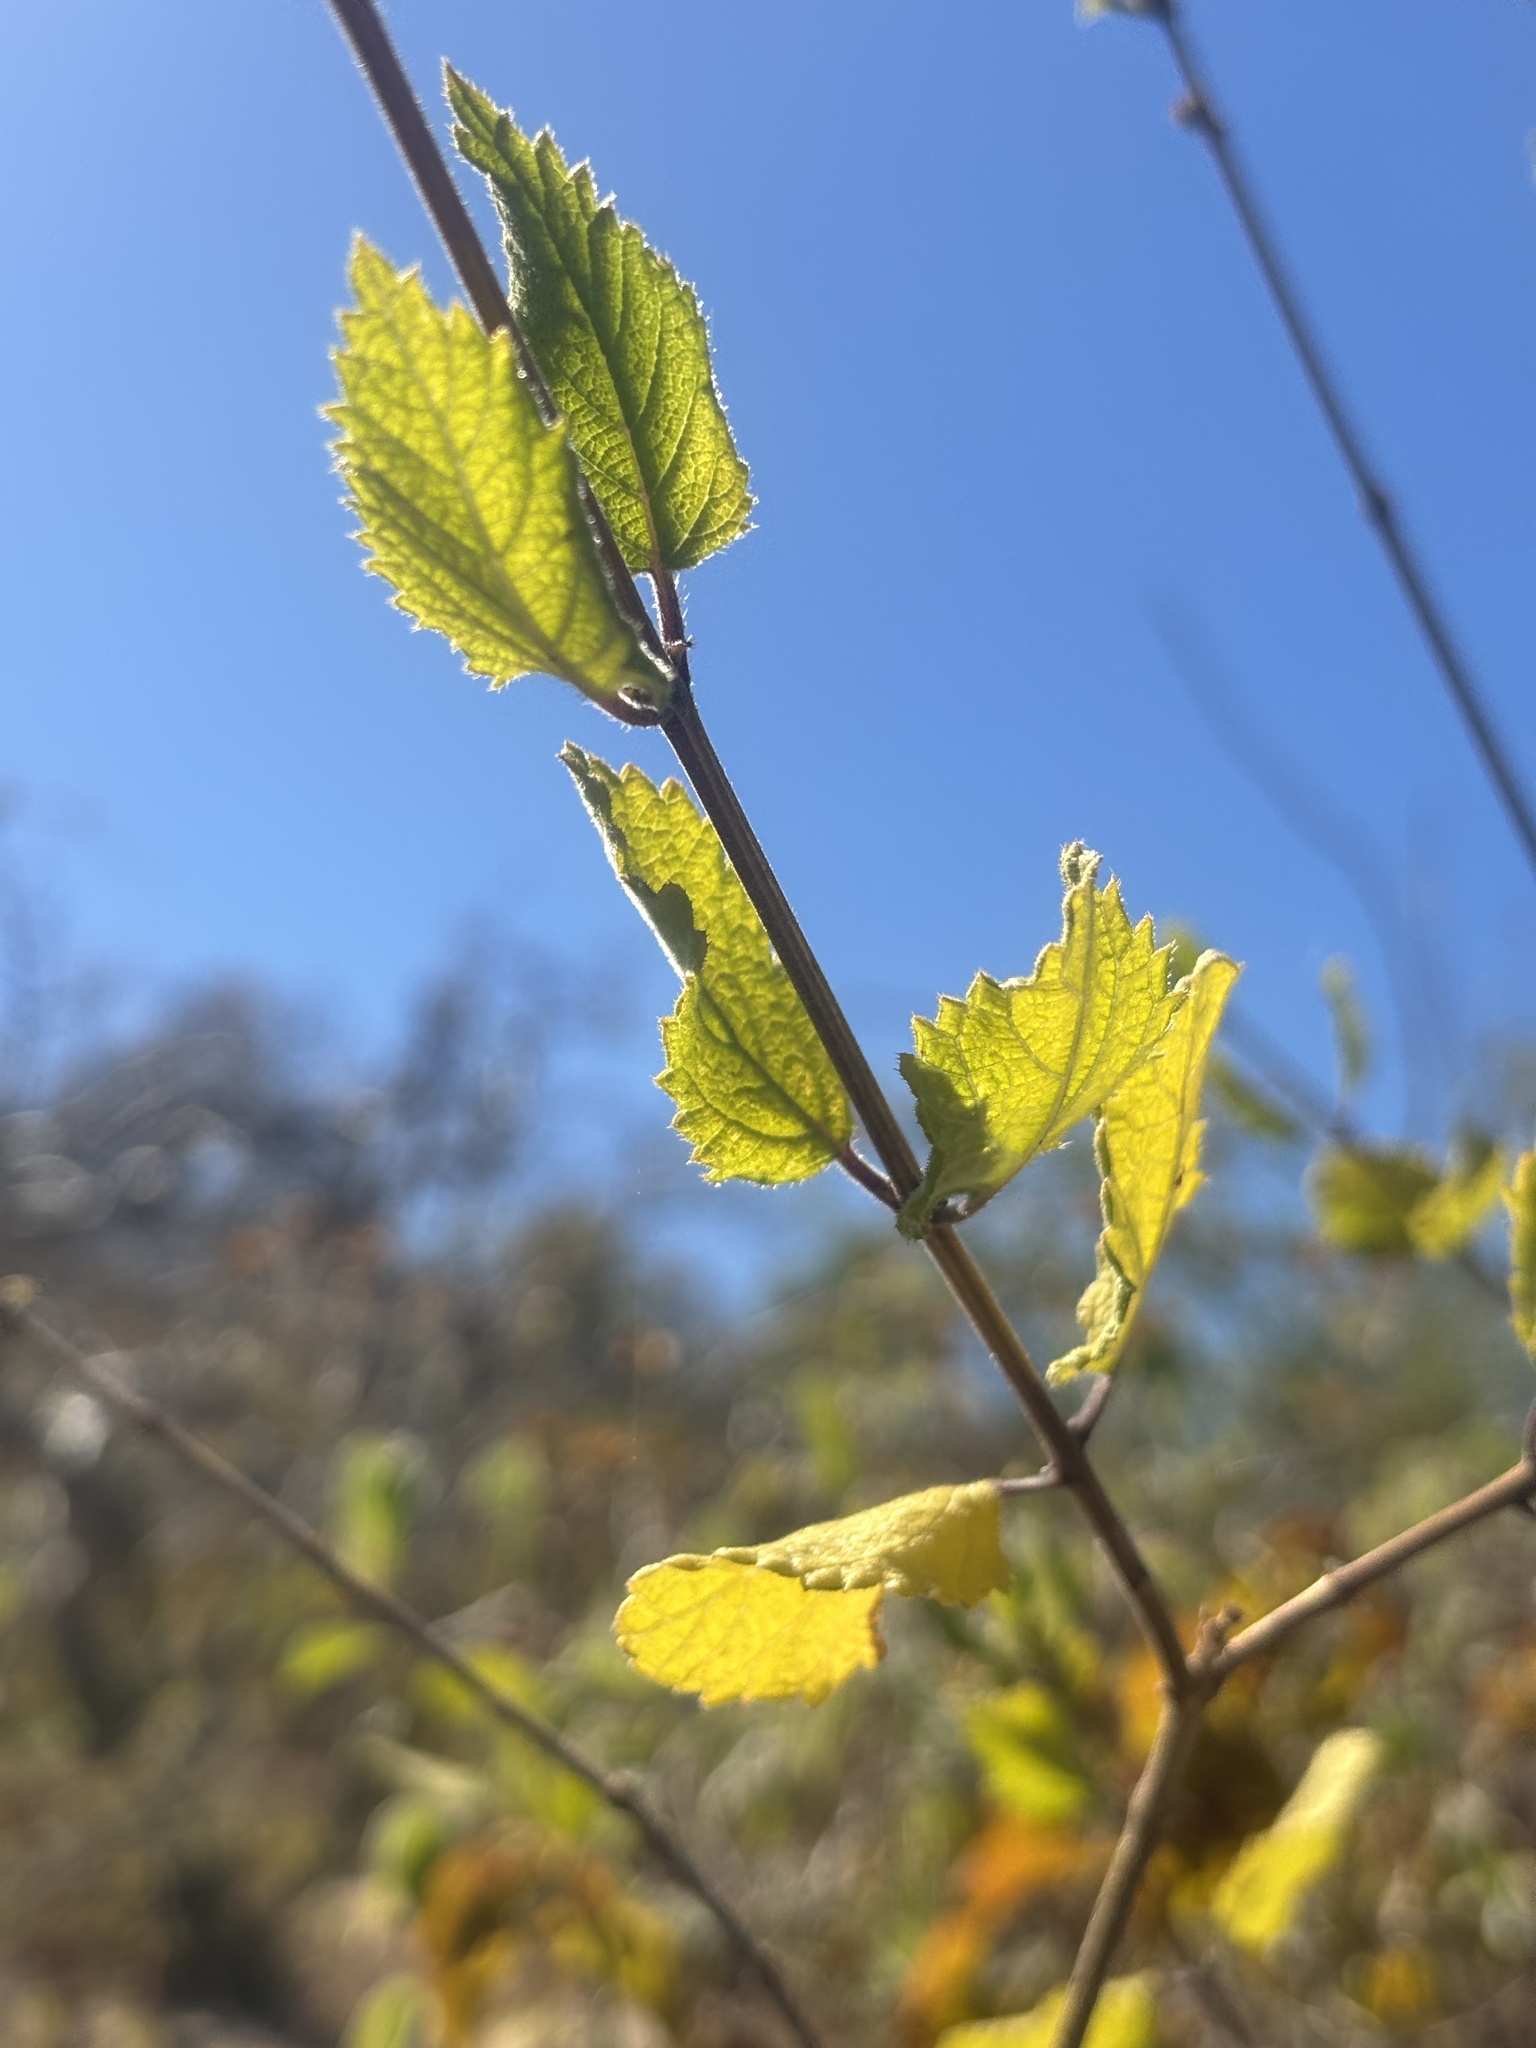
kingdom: Plantae
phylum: Tracheophyta
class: Magnoliopsida
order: Lamiales
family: Verbenaceae
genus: Aloysia
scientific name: Aloysia barbata
